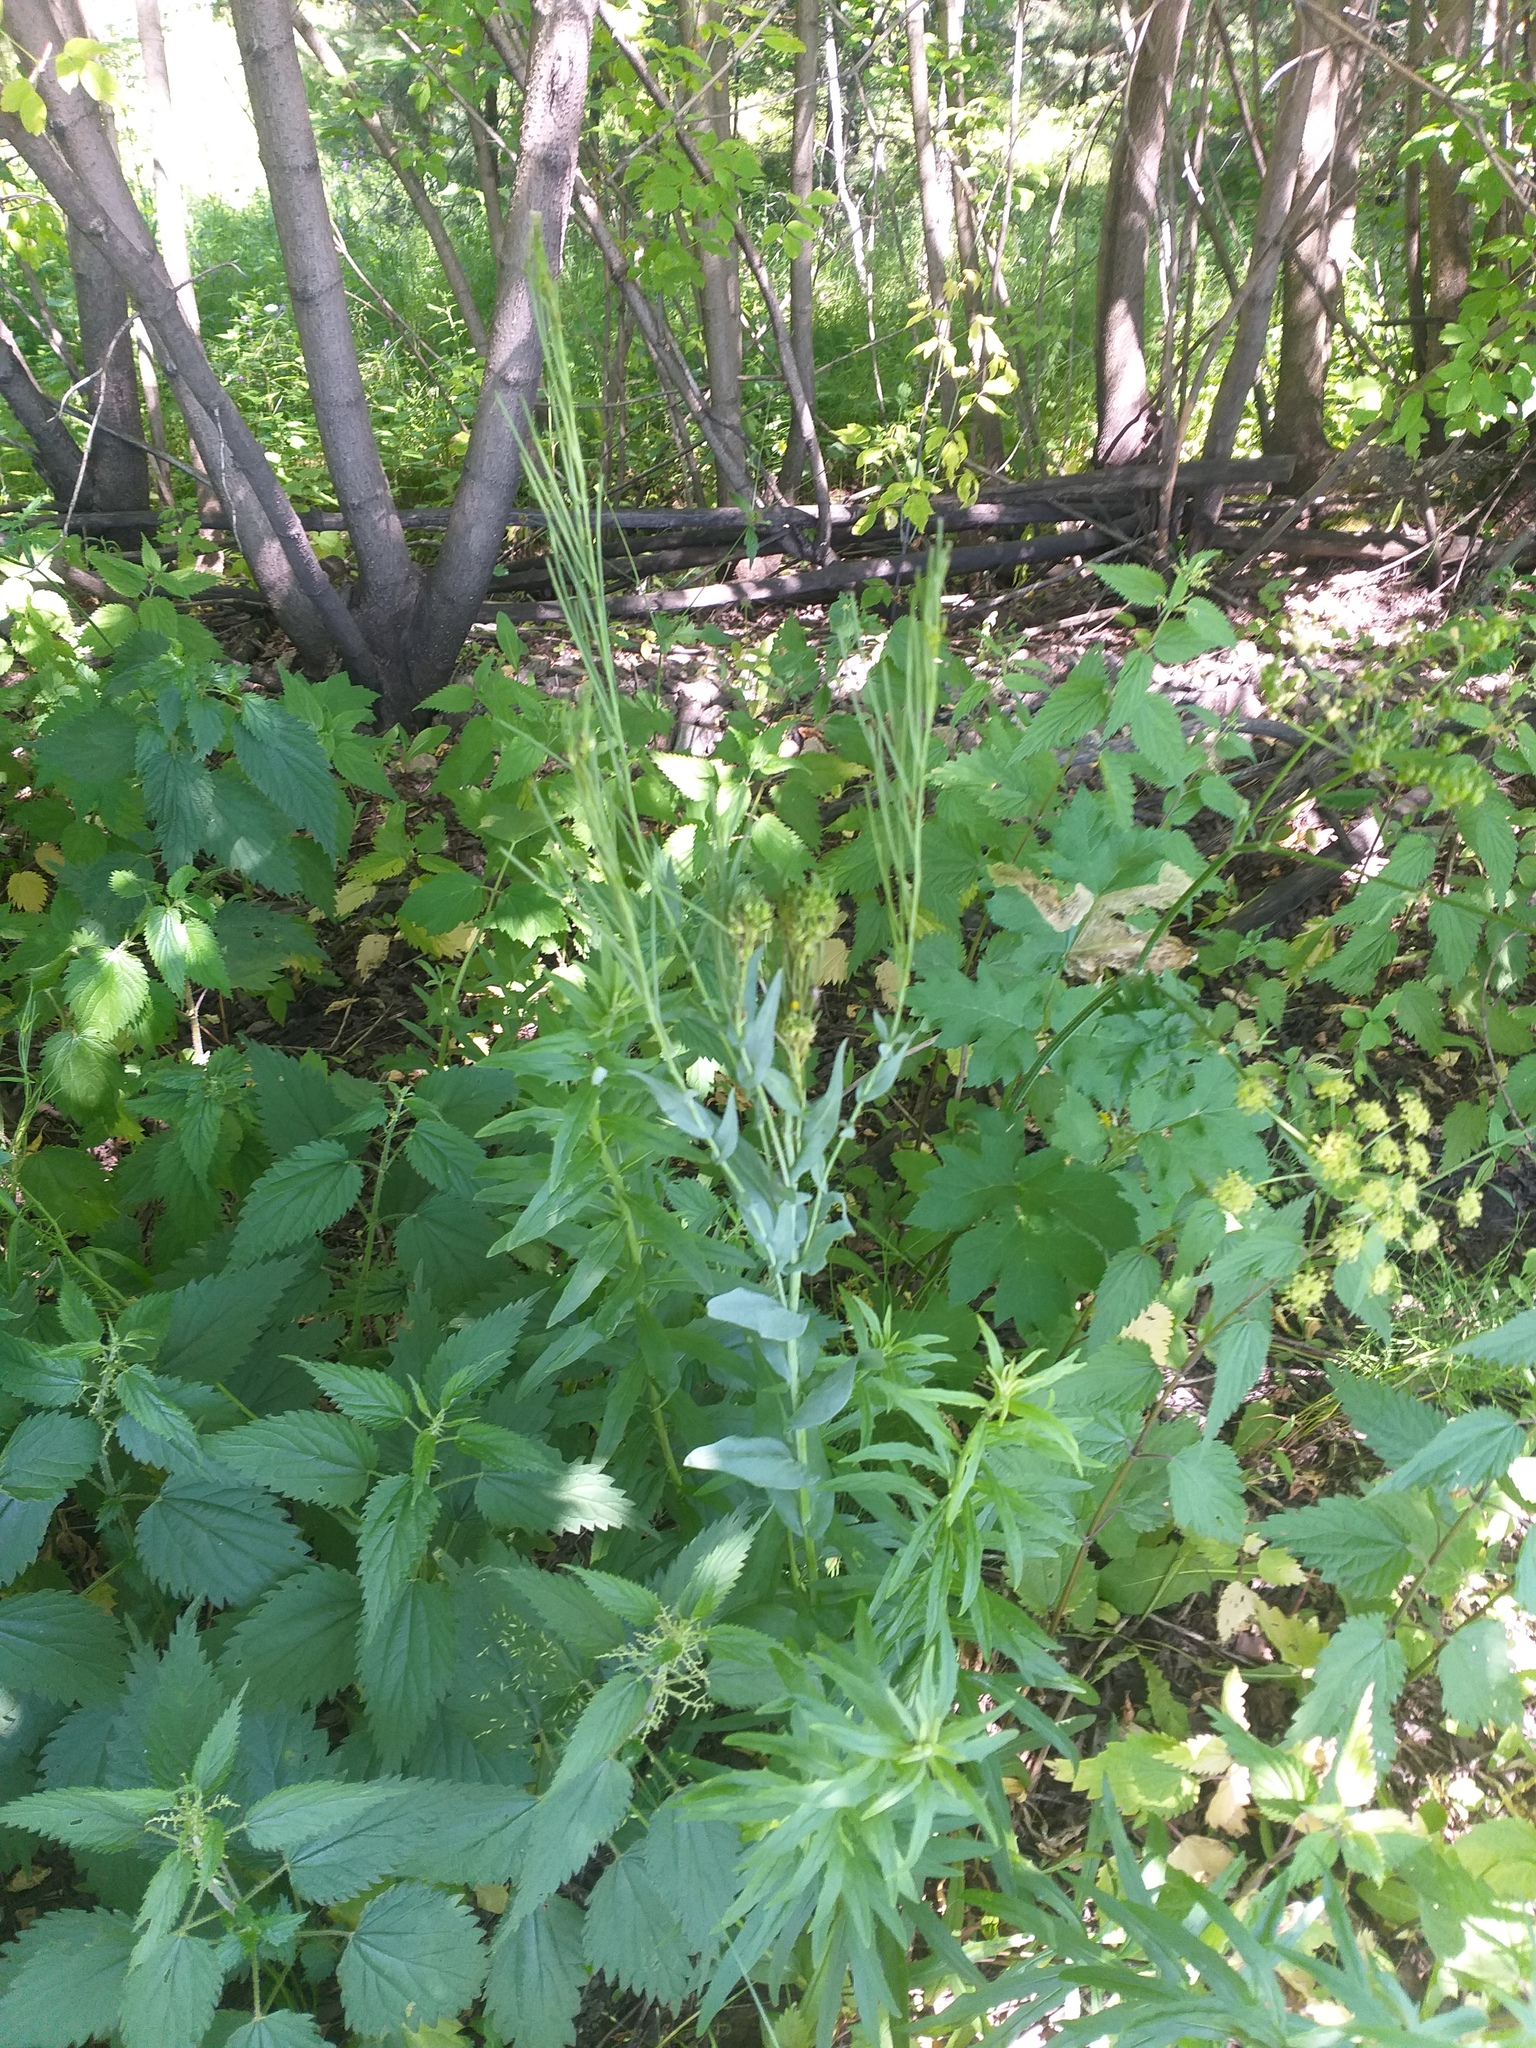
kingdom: Plantae
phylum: Tracheophyta
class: Magnoliopsida
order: Brassicales
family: Brassicaceae
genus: Turritis
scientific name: Turritis glabra
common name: Tower rockcress
